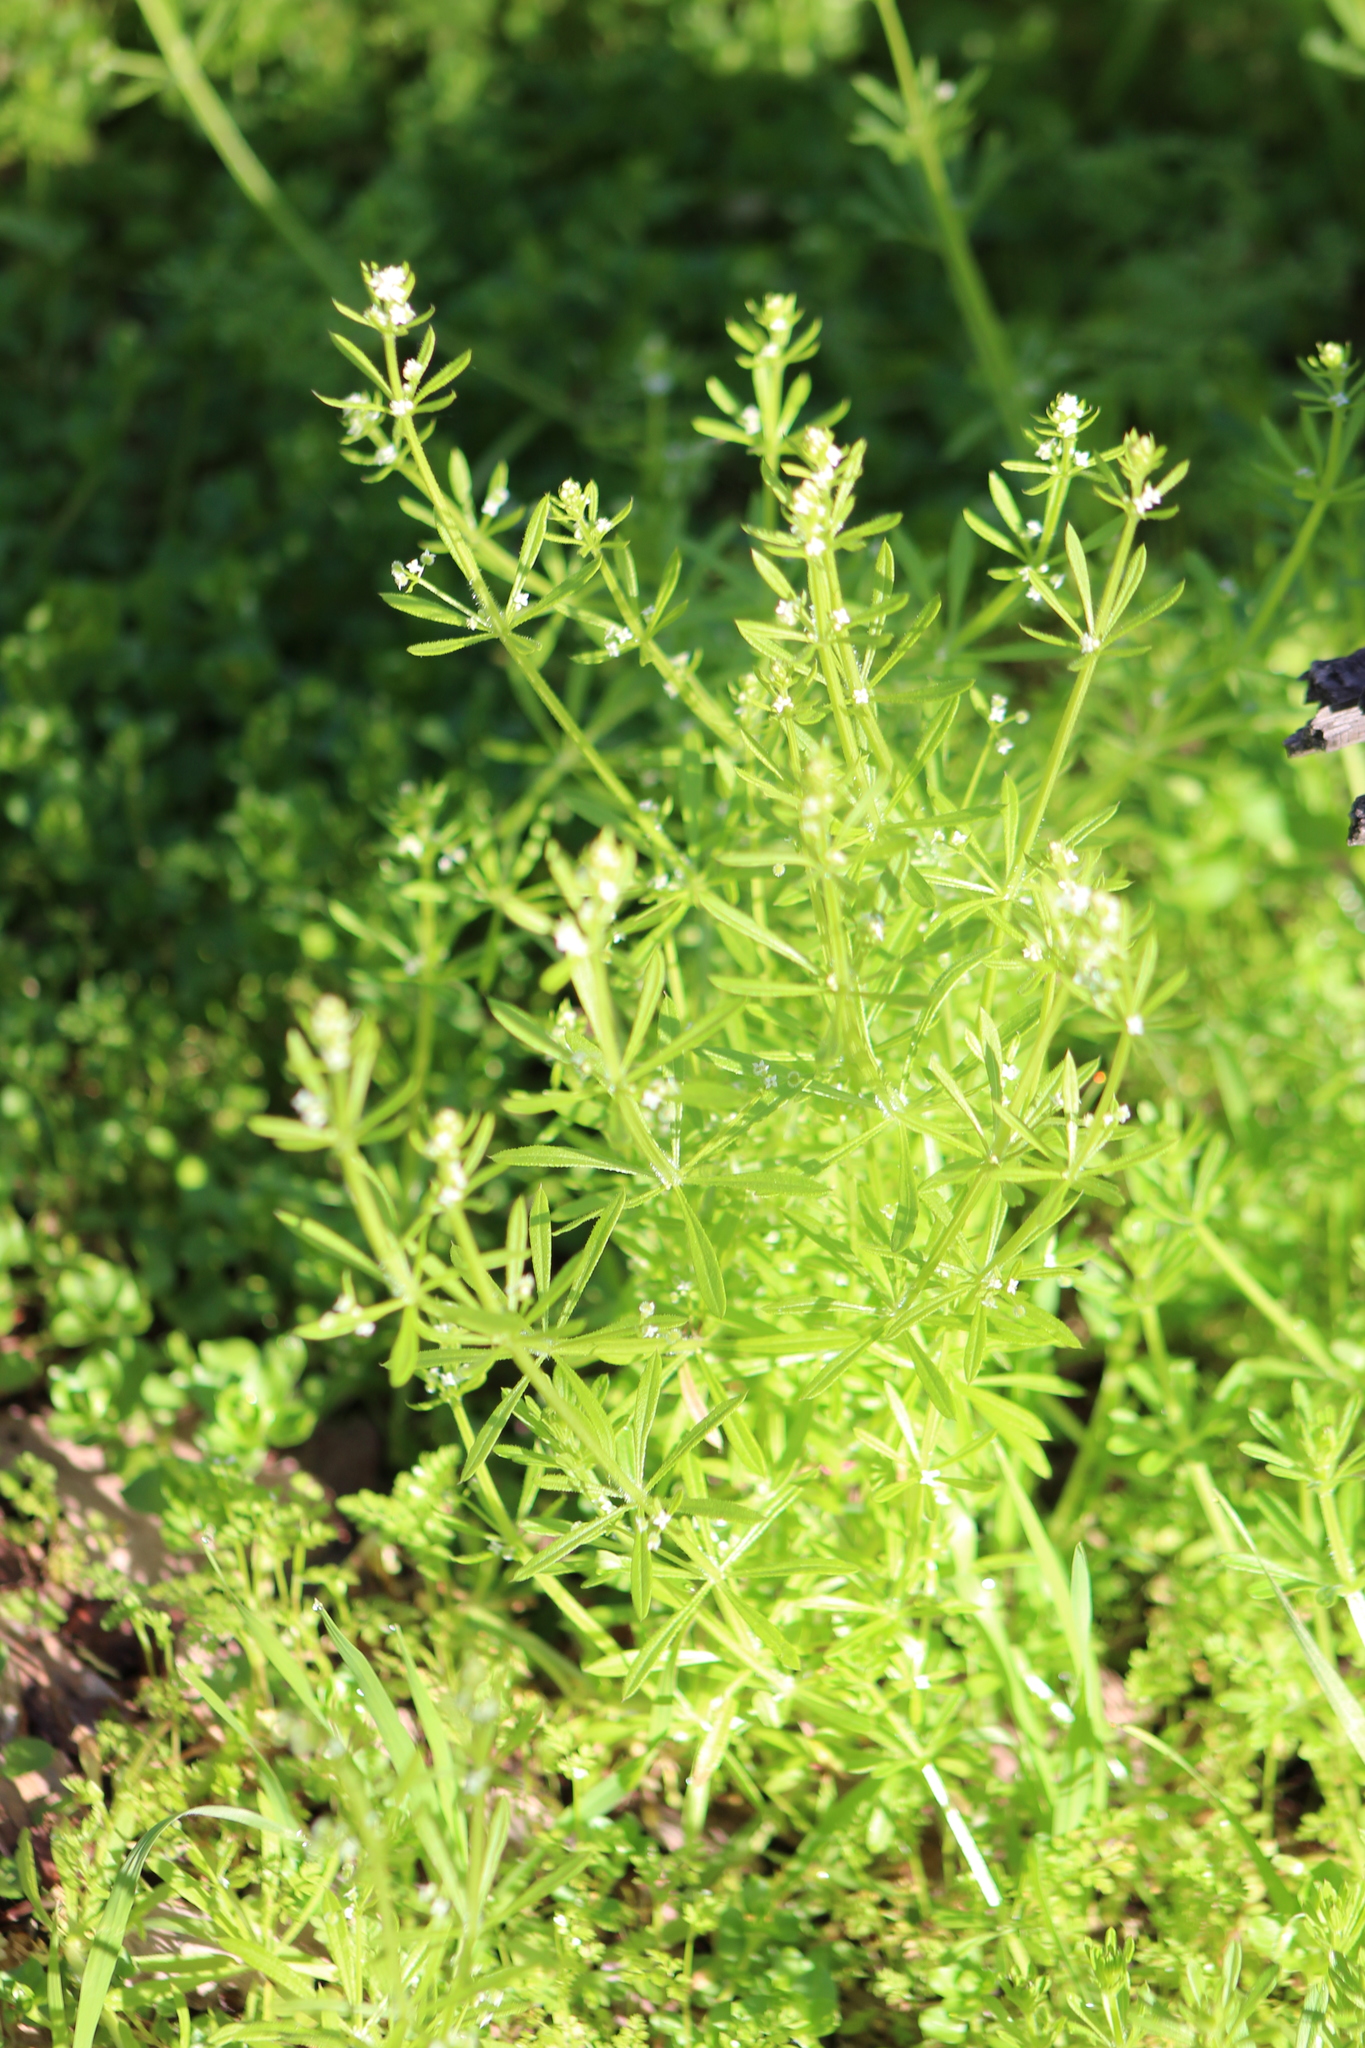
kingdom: Plantae
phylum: Tracheophyta
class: Magnoliopsida
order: Gentianales
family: Rubiaceae
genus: Galium
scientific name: Galium aparine
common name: Cleavers
